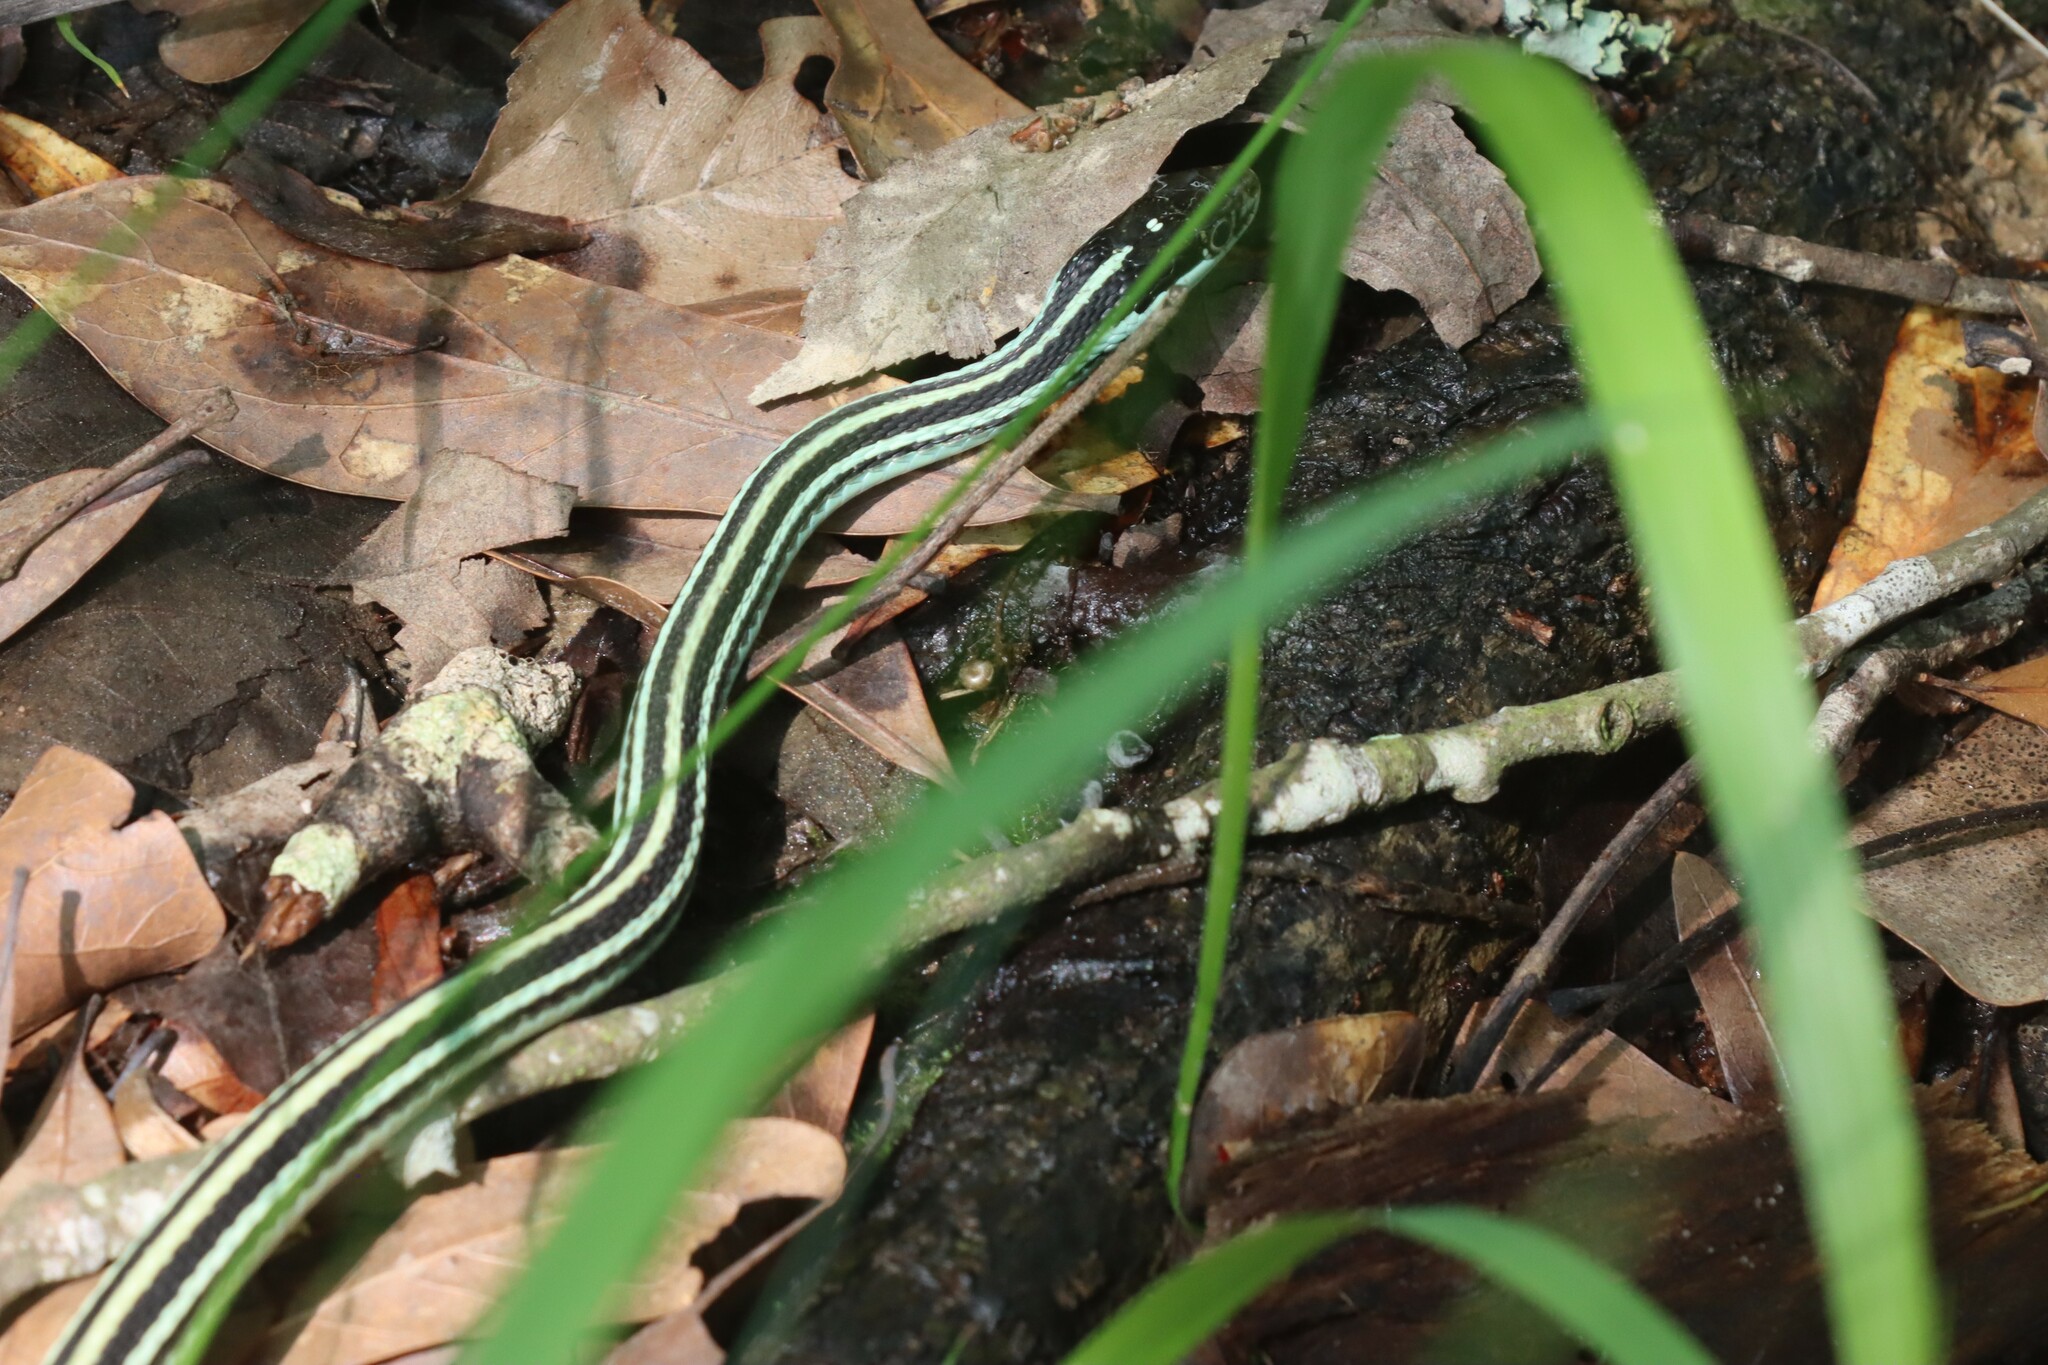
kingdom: Animalia
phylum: Chordata
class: Squamata
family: Colubridae
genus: Thamnophis
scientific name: Thamnophis proximus
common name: Western ribbon snake
